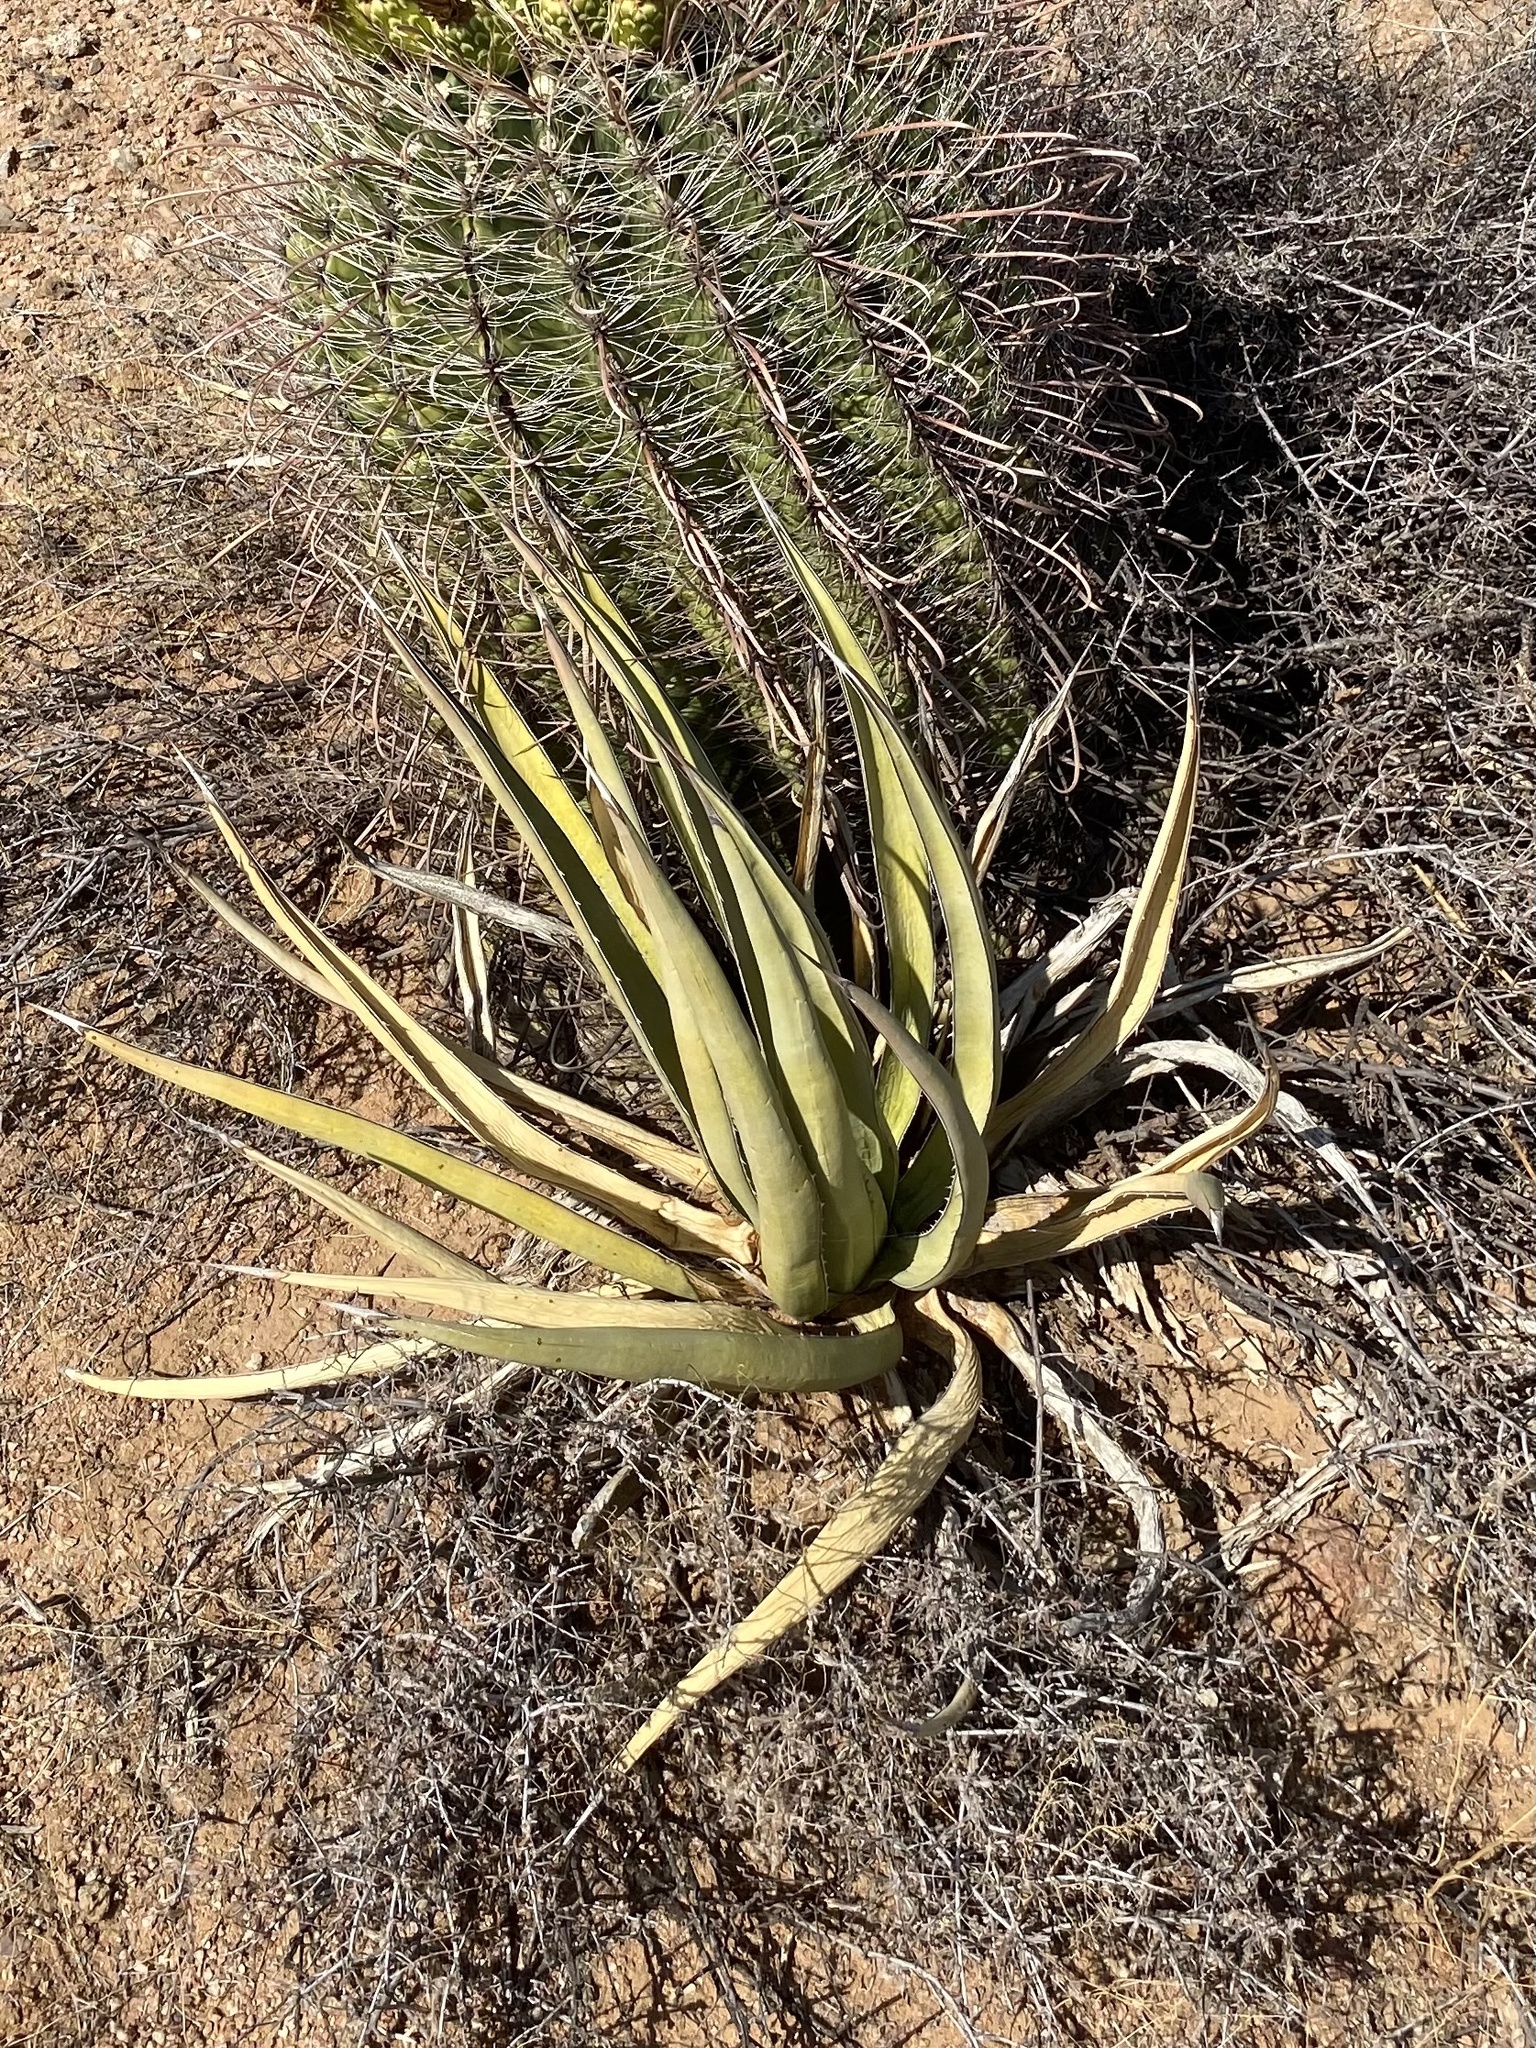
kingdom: Plantae
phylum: Tracheophyta
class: Liliopsida
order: Asparagales
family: Asparagaceae
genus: Agave
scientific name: Agave lechuguilla
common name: Lecheguilla agave
